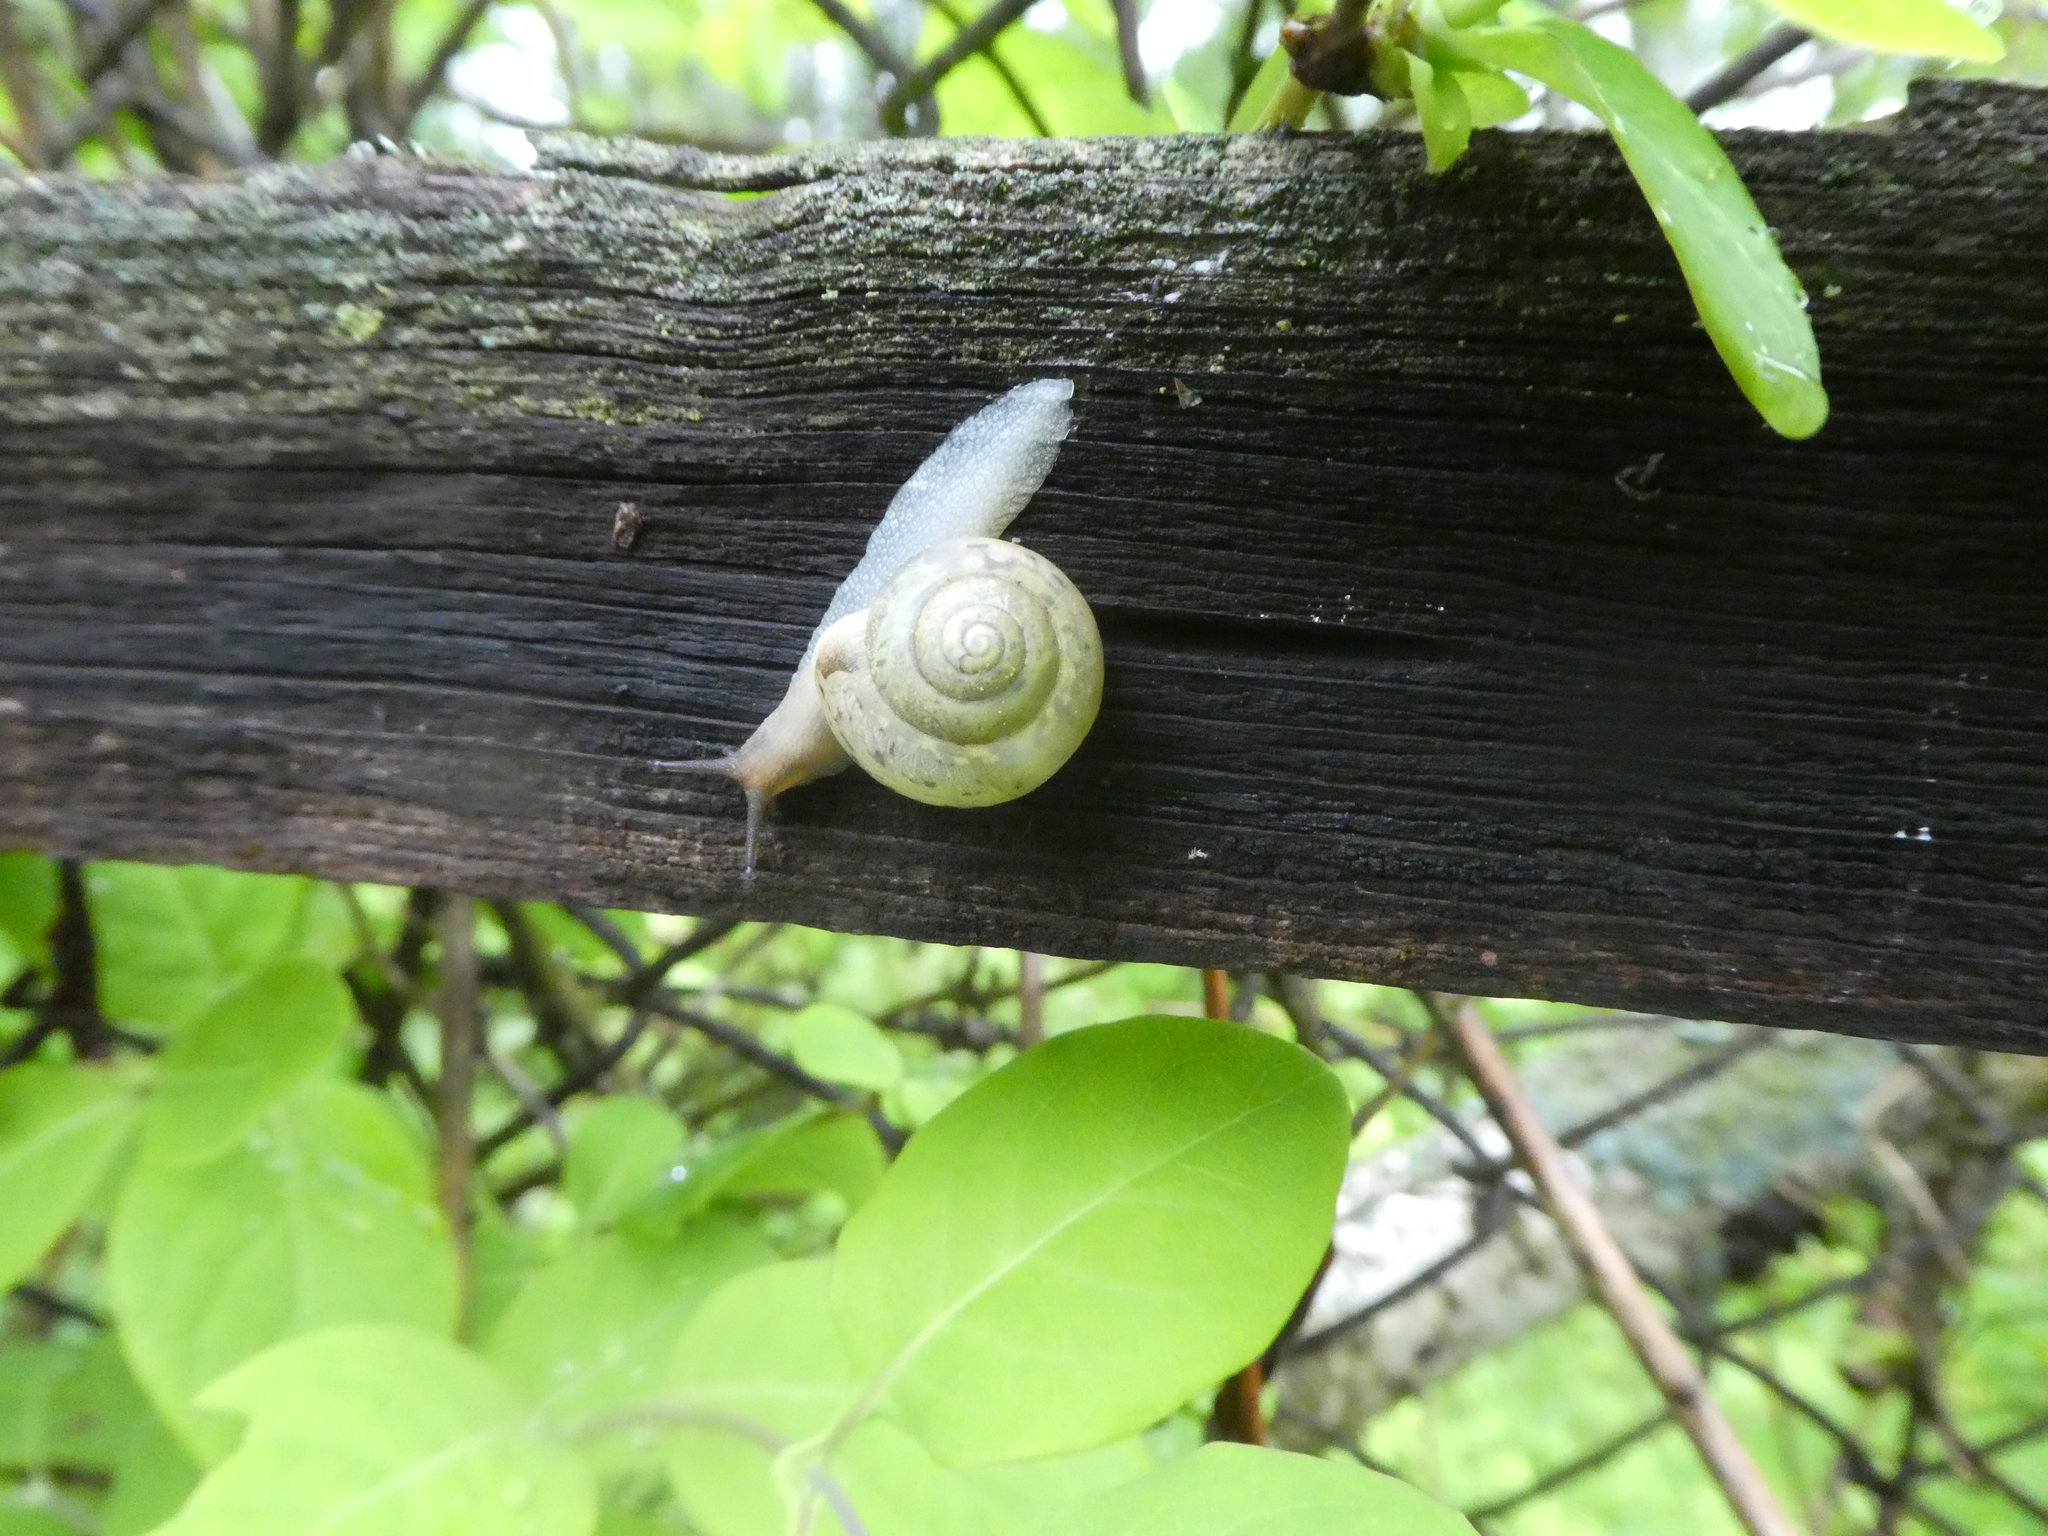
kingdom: Animalia
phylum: Mollusca
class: Gastropoda
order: Stylommatophora
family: Camaenidae
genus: Fruticicola
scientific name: Fruticicola fruticum
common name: Bush snail
